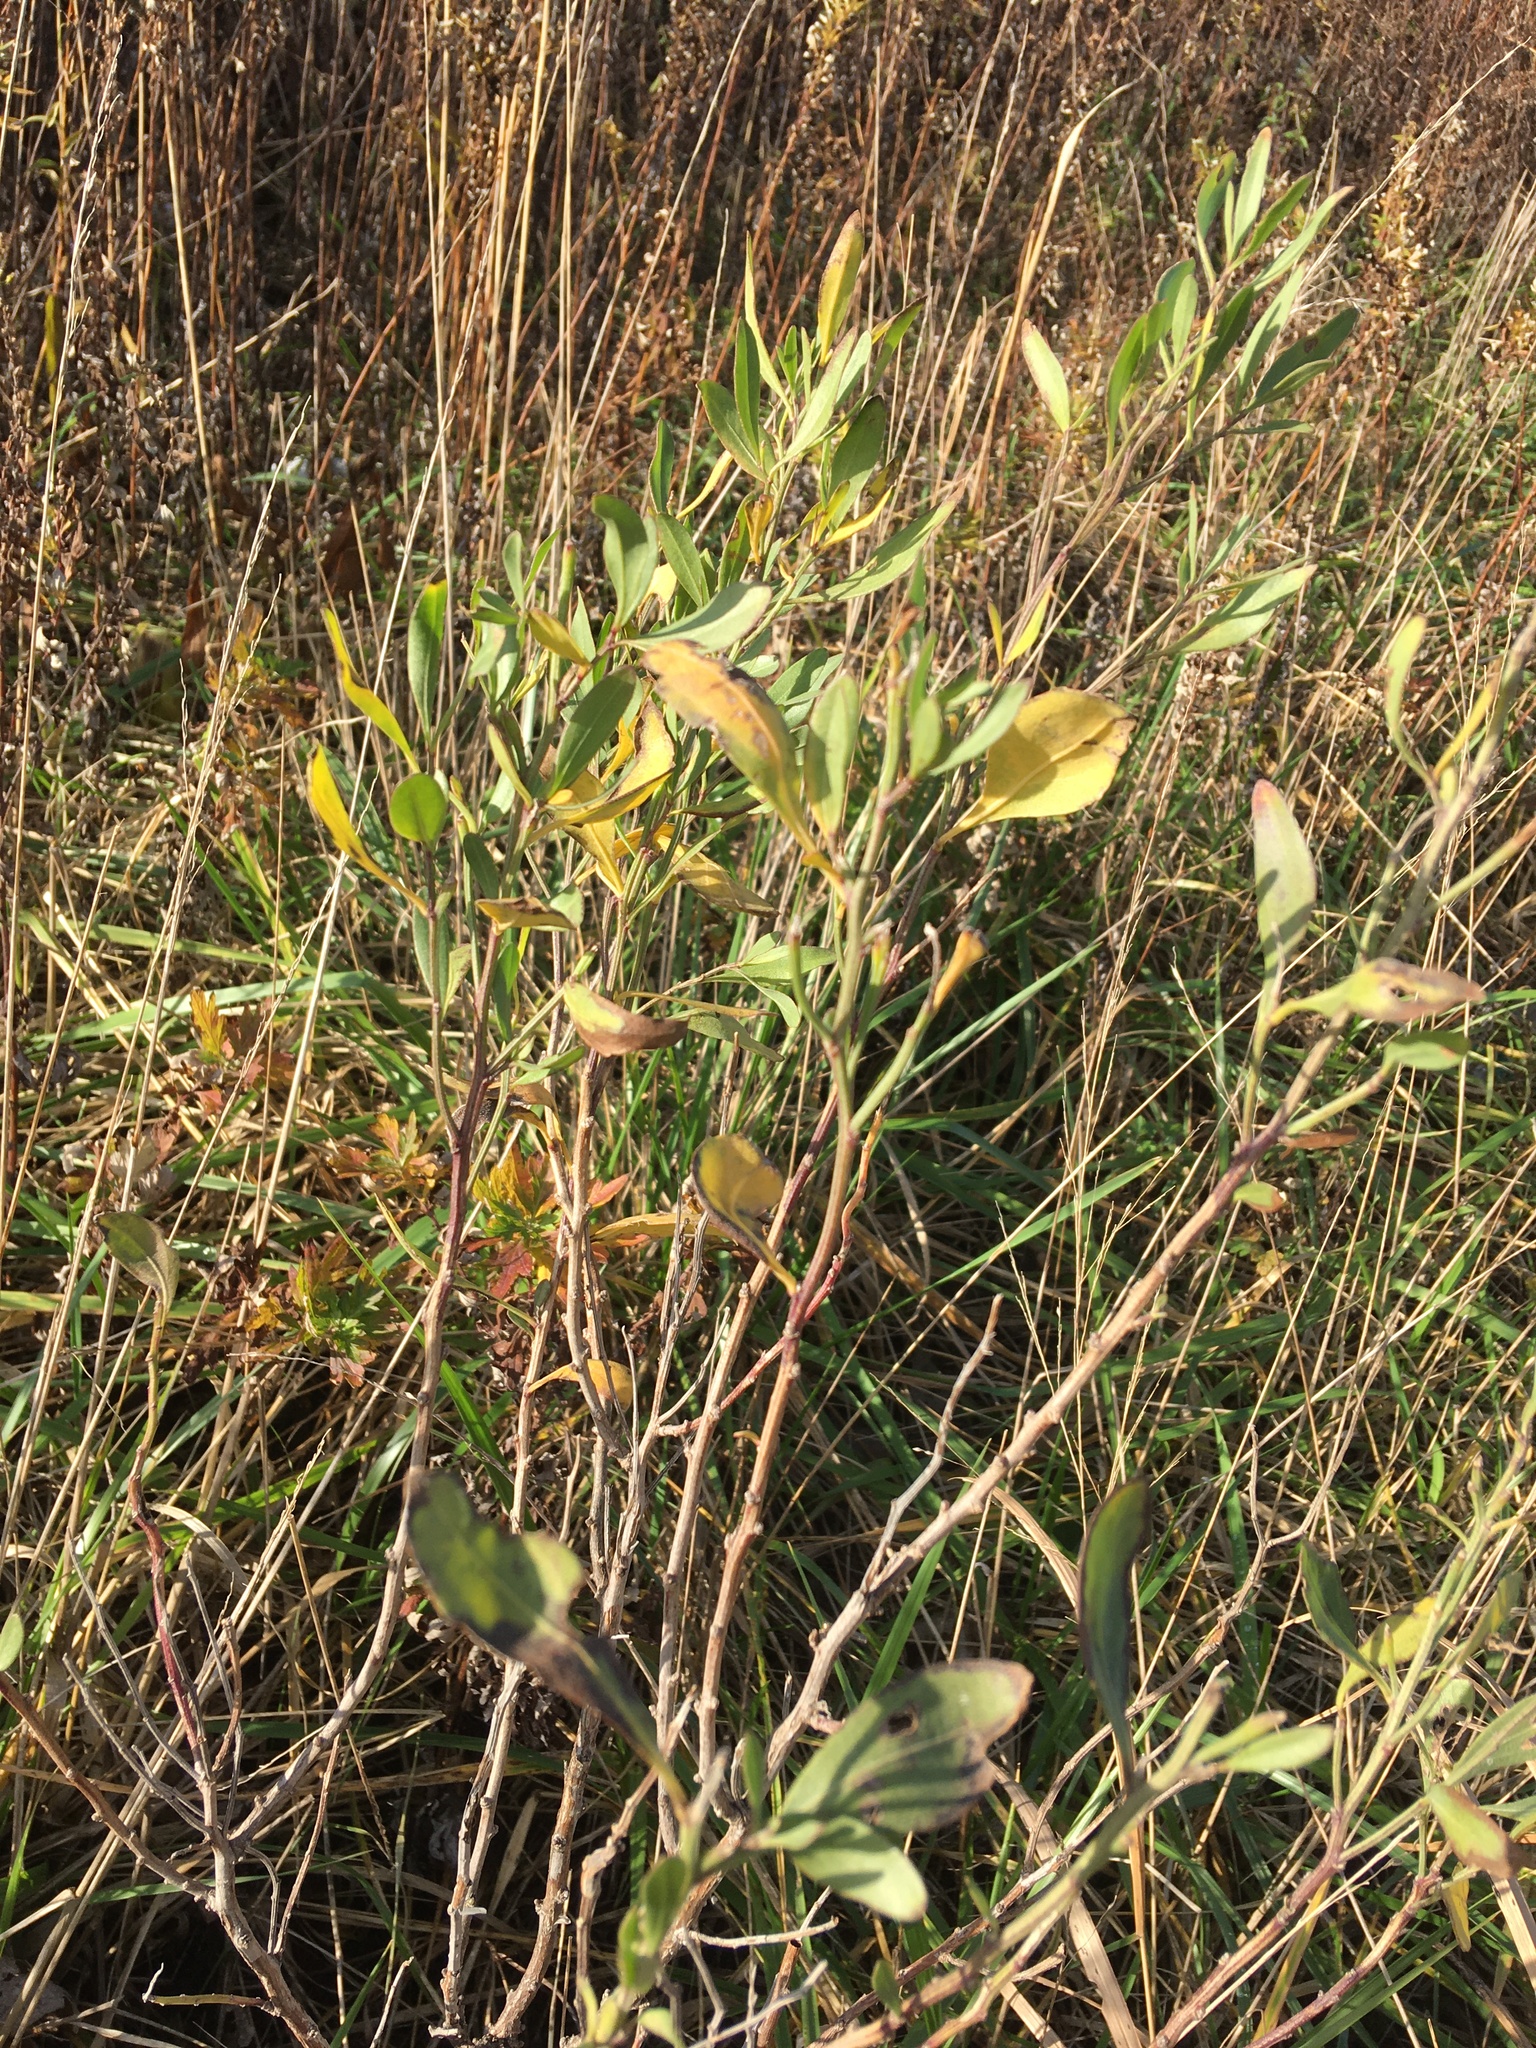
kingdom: Plantae
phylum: Tracheophyta
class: Magnoliopsida
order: Asterales
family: Asteraceae
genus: Baccharis
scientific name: Baccharis halimifolia
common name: Eastern baccharis
